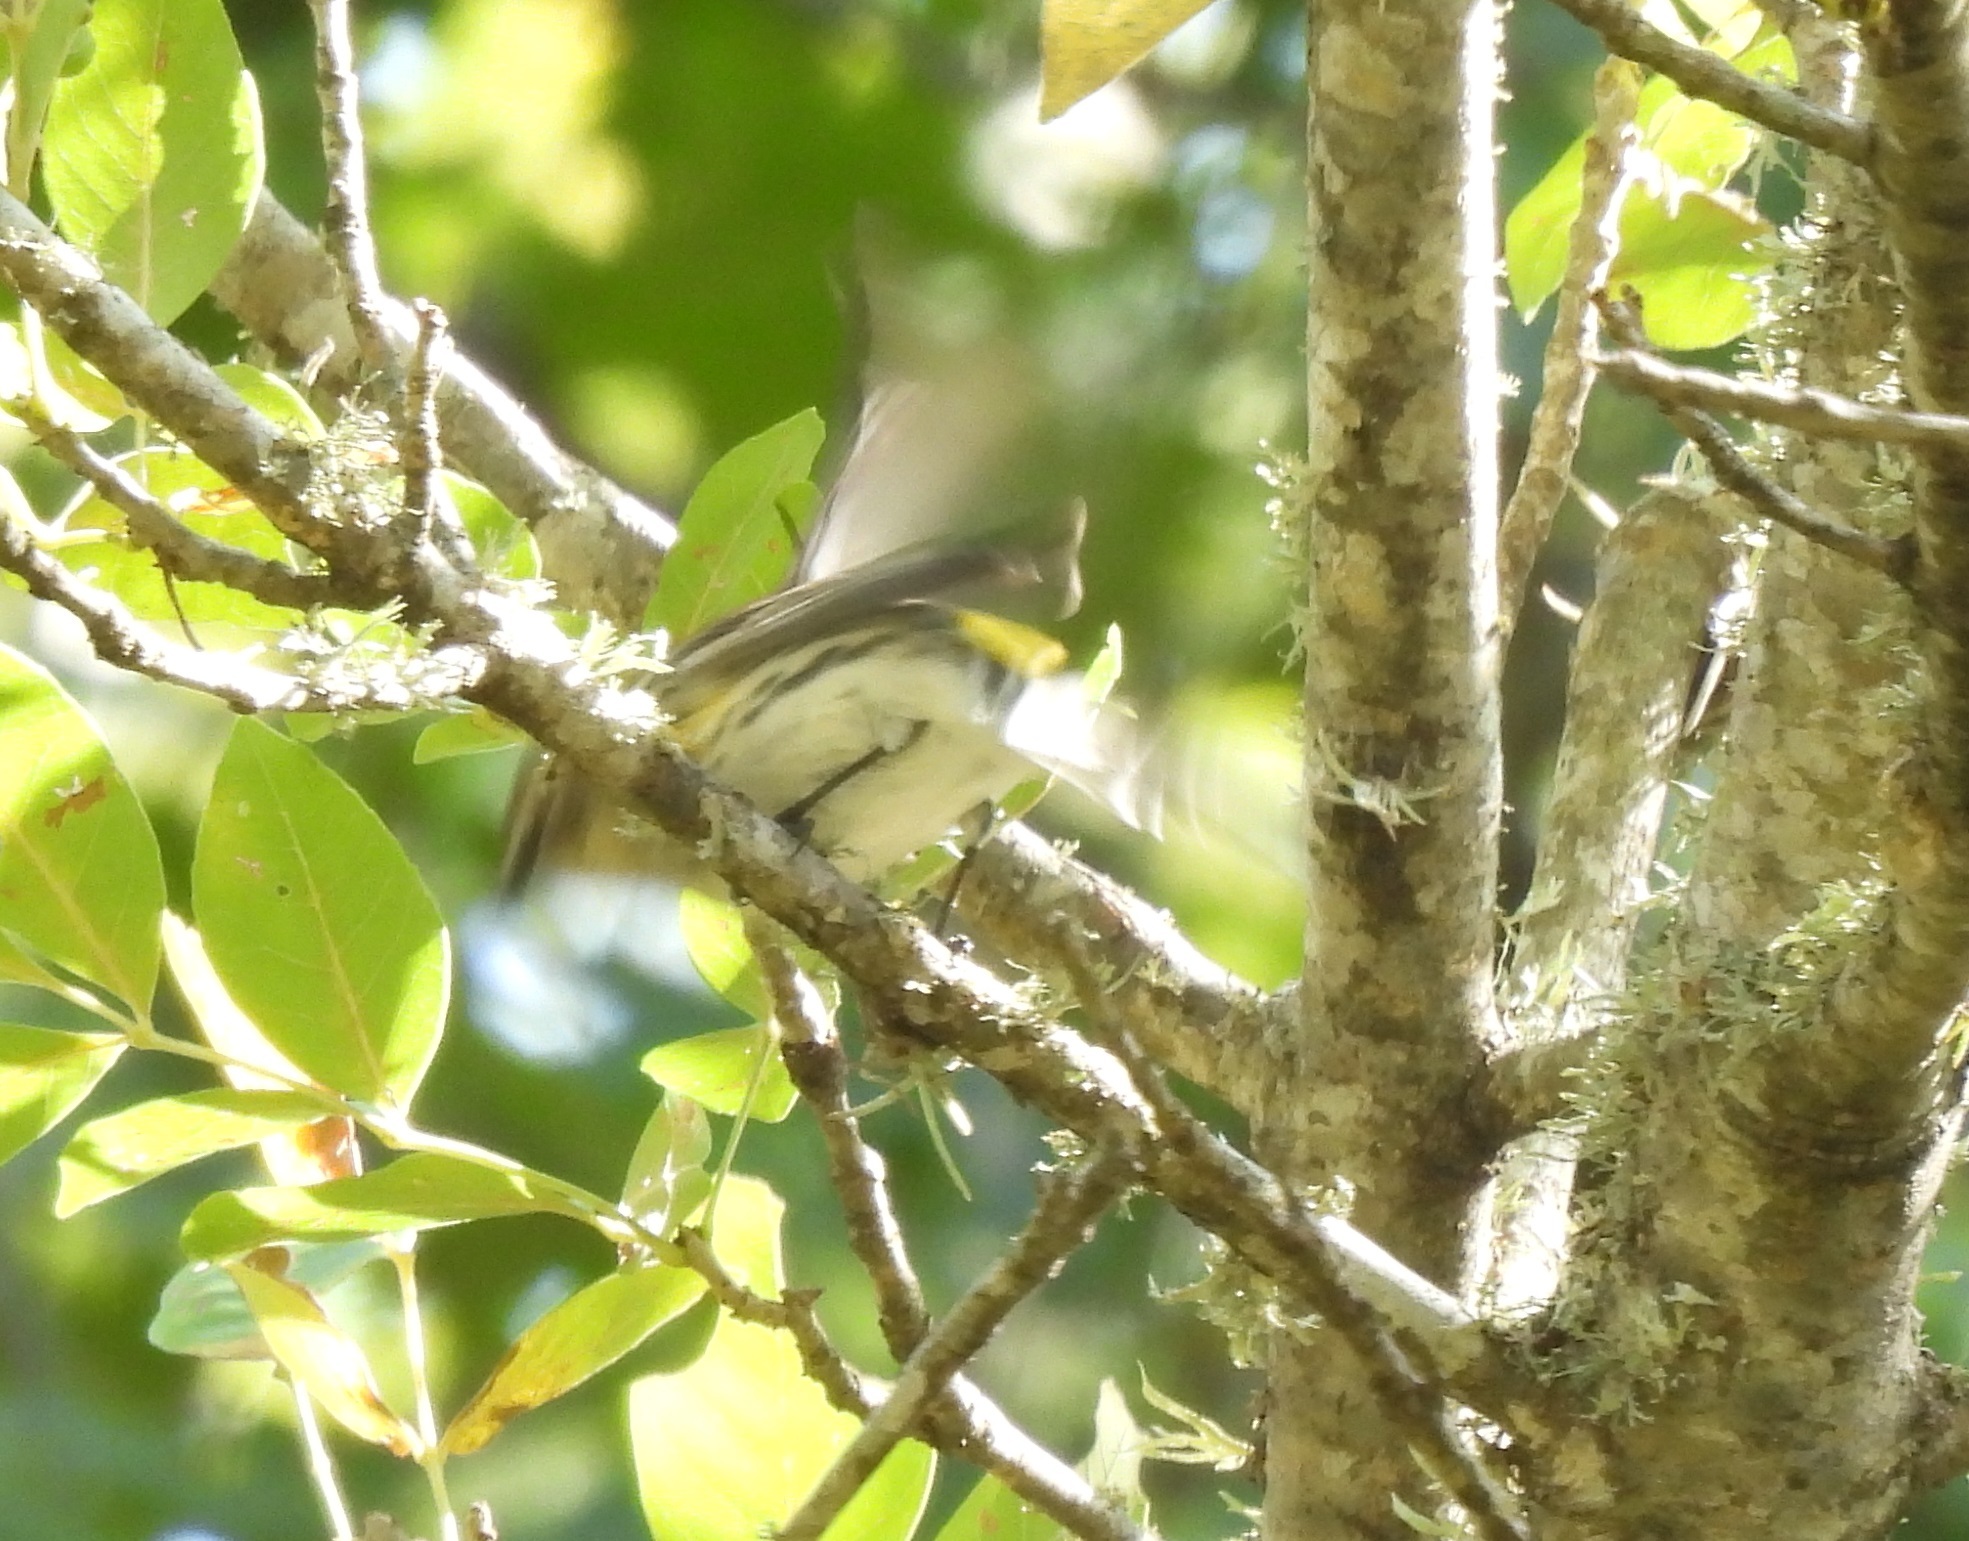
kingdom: Animalia
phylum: Chordata
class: Aves
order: Passeriformes
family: Parulidae
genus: Setophaga
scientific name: Setophaga coronata
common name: Myrtle warbler
